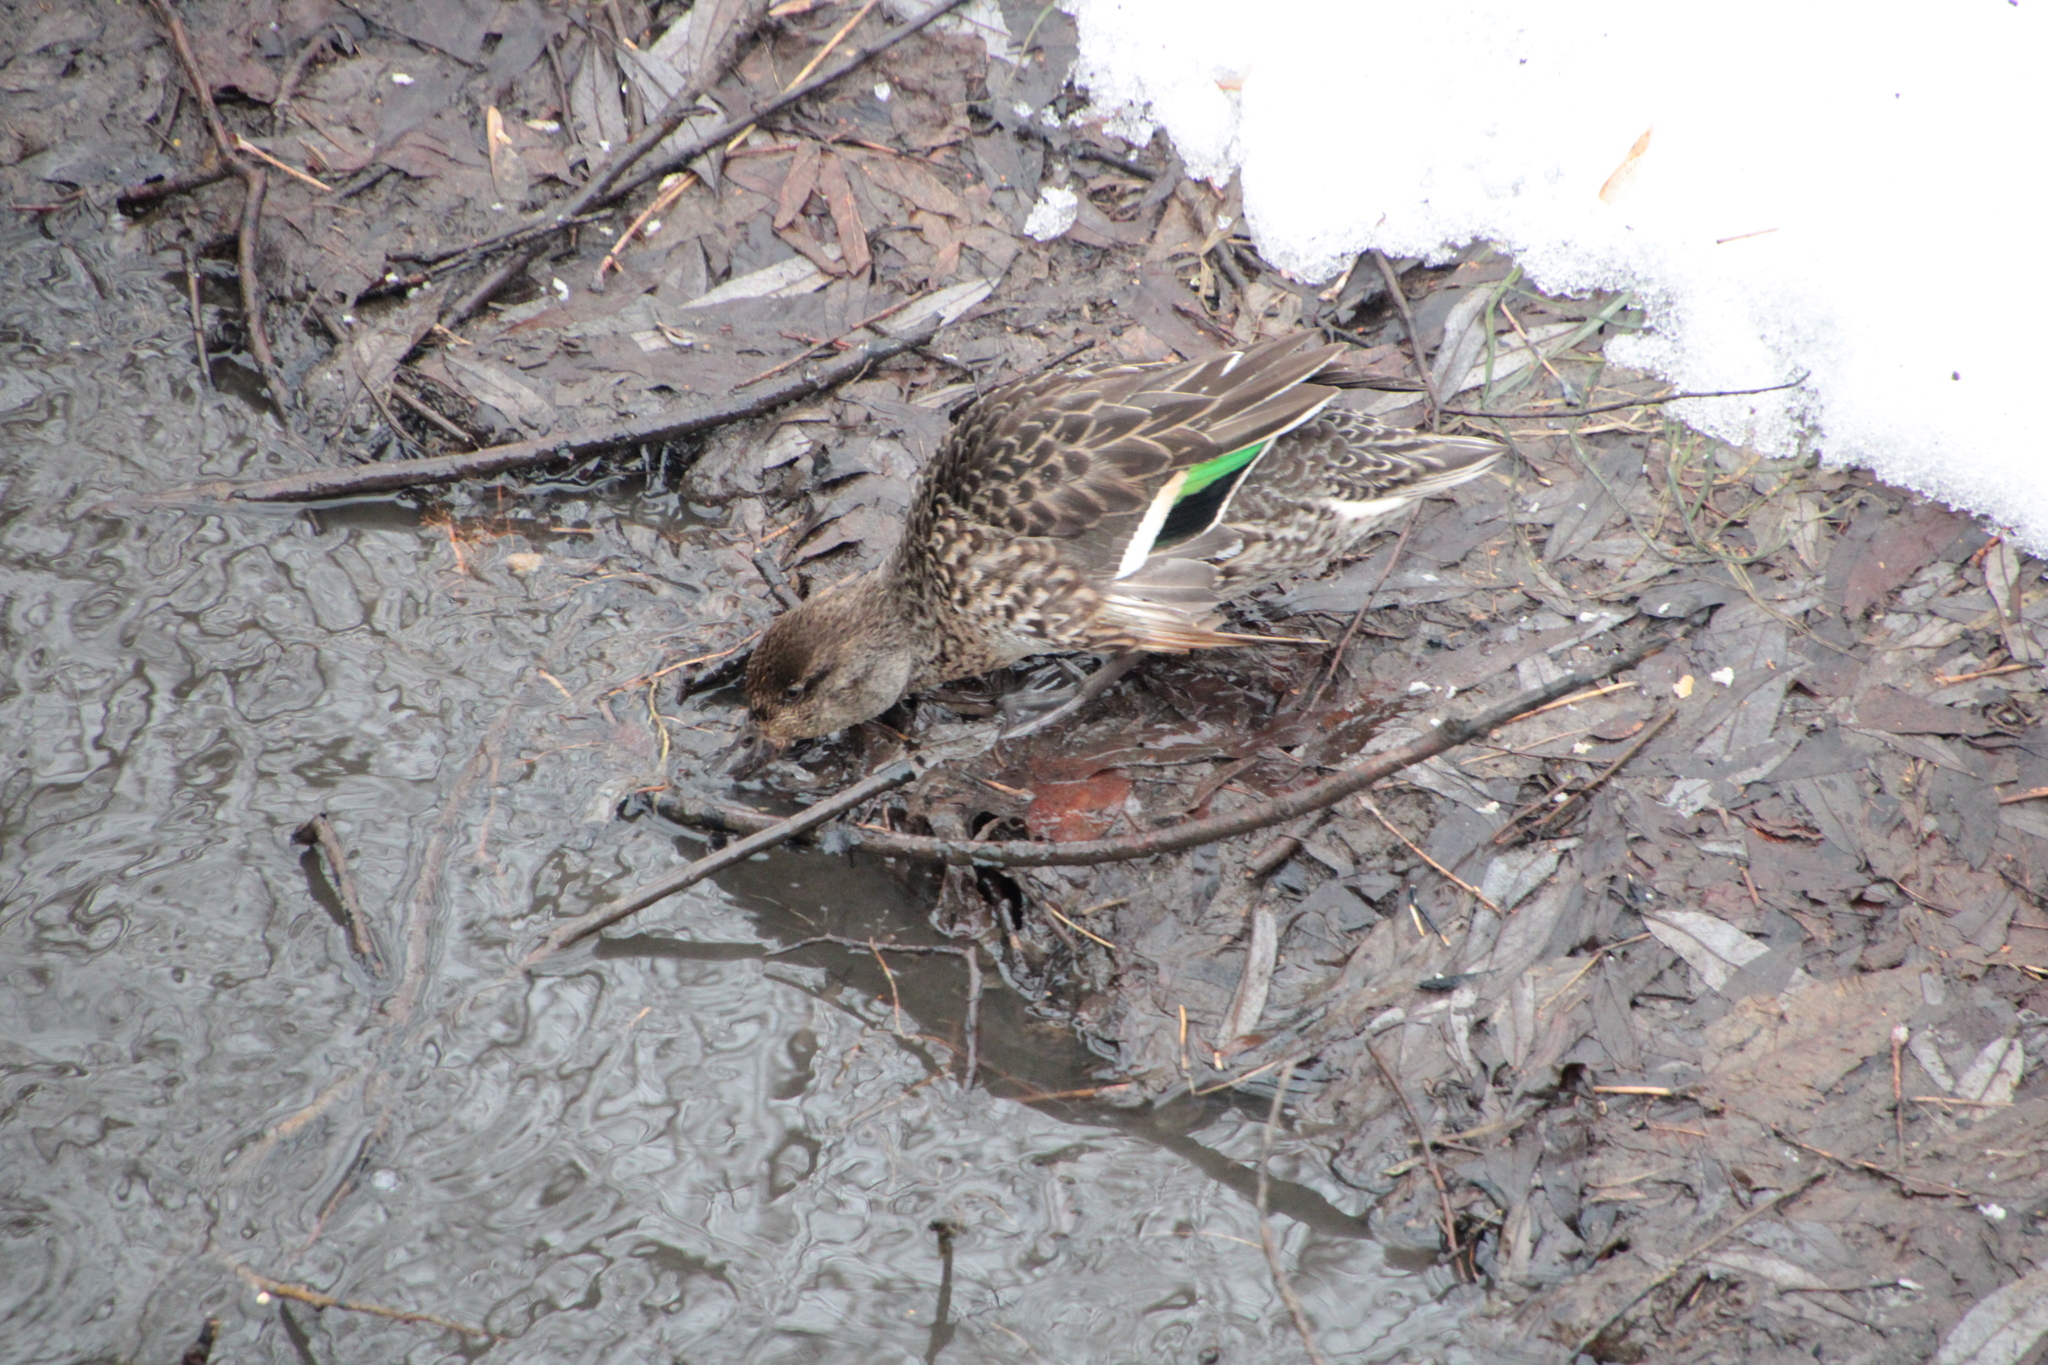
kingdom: Animalia
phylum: Chordata
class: Aves
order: Anseriformes
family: Anatidae
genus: Anas
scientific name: Anas crecca
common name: Eurasian teal
